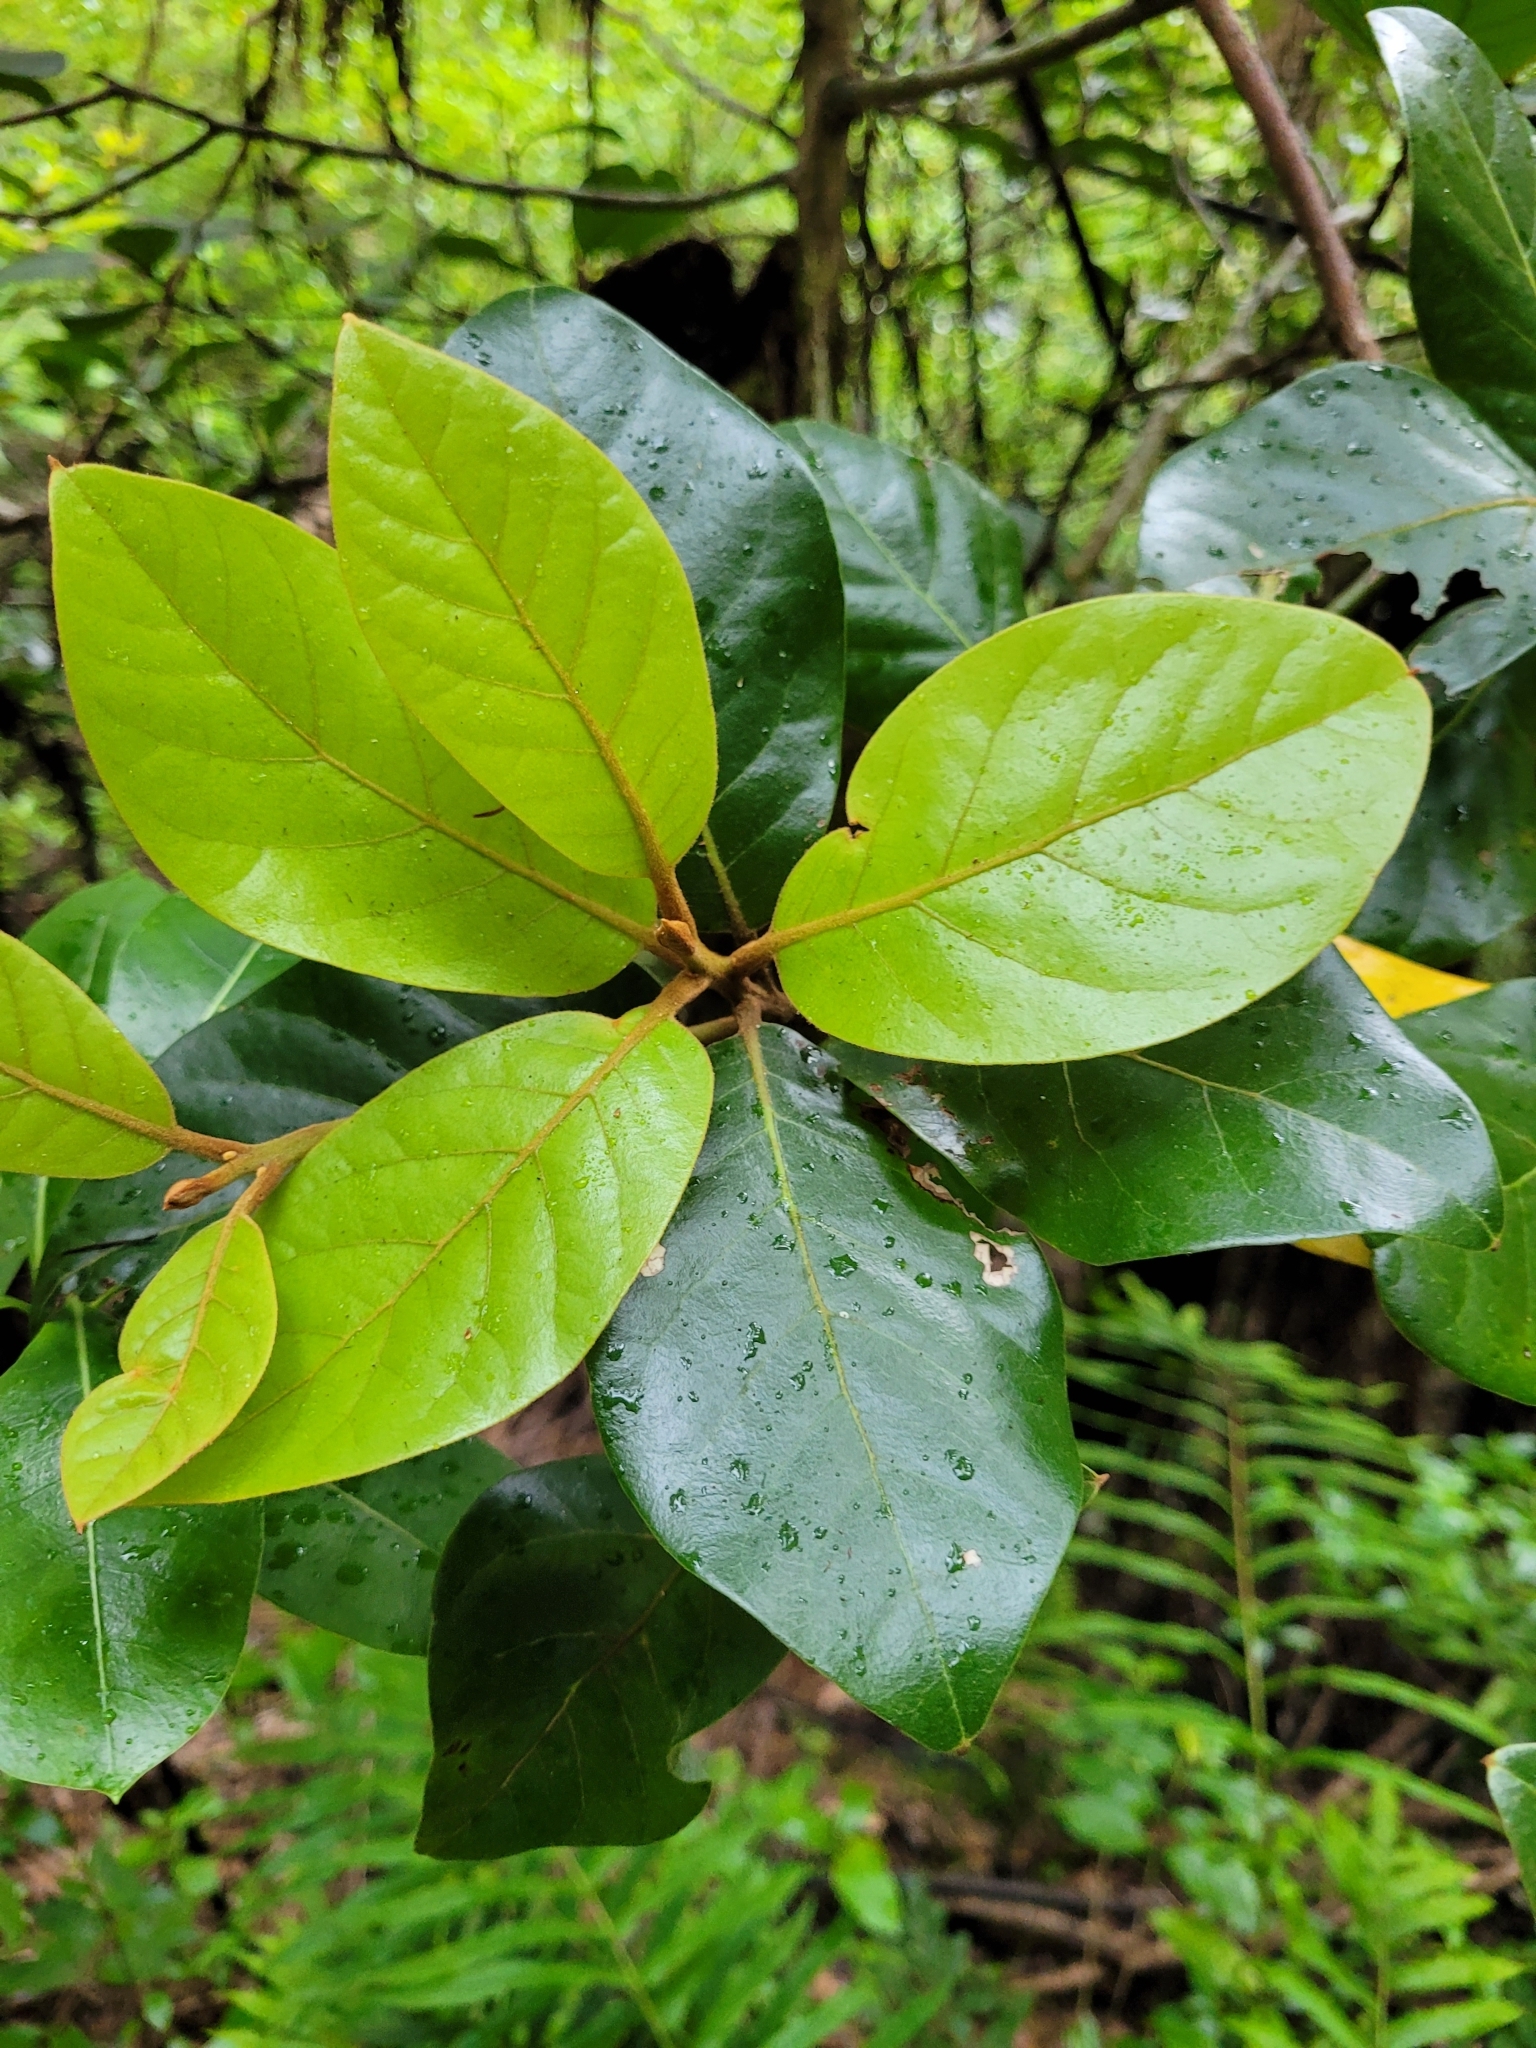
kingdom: Plantae
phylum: Tracheophyta
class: Magnoliopsida
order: Laurales
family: Lauraceae
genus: Beilschmiedia
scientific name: Beilschmiedia tarairi
